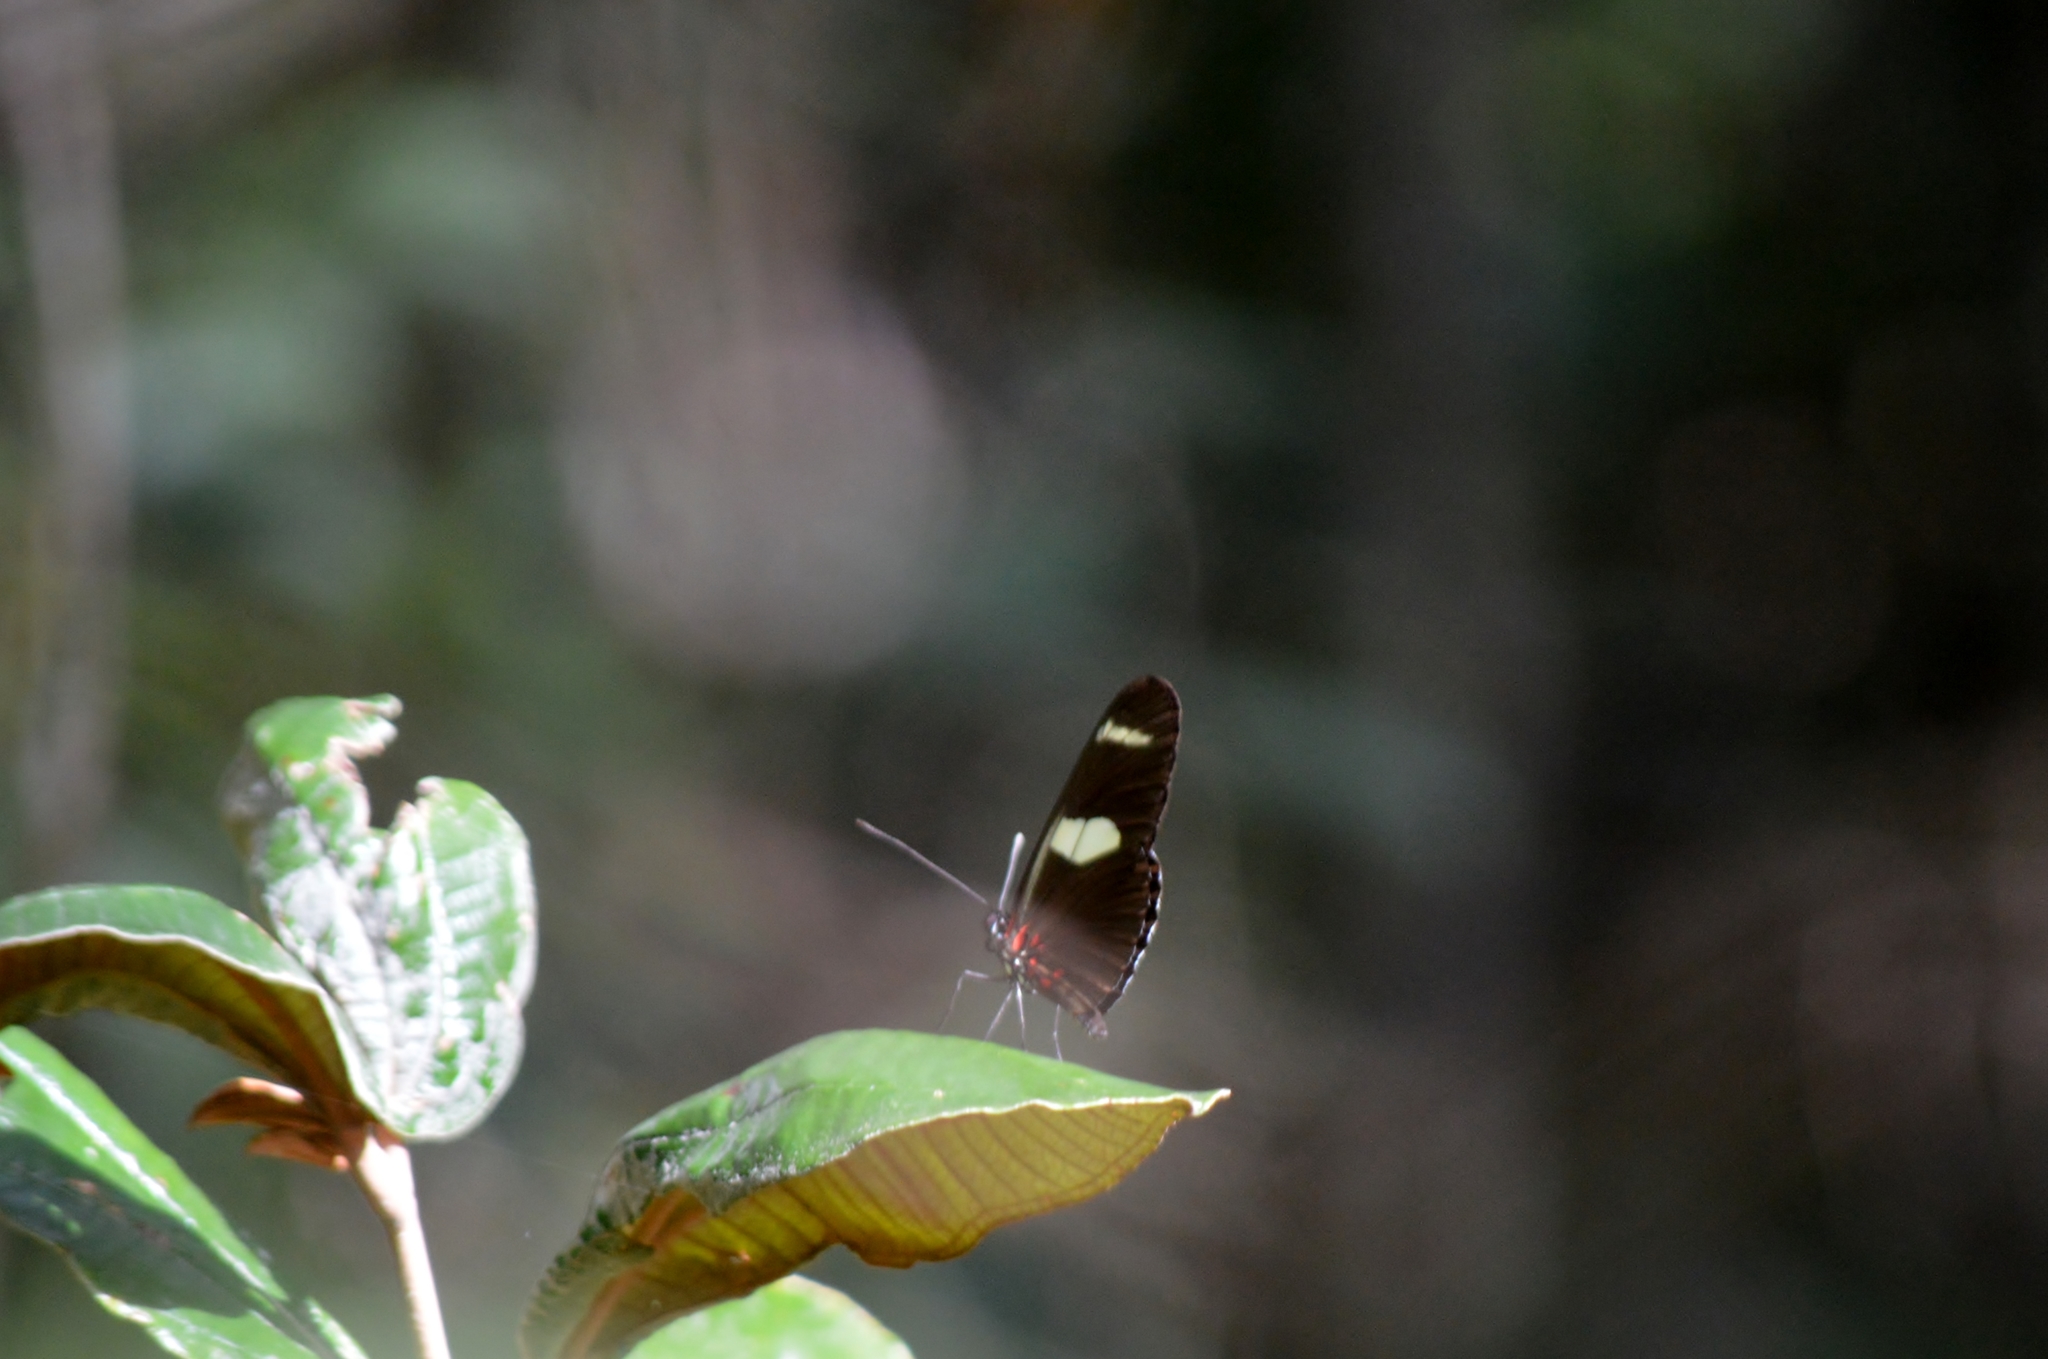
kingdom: Animalia
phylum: Arthropoda
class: Insecta
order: Lepidoptera
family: Nymphalidae
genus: Heliconius
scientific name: Heliconius sara
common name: Sara longwing
